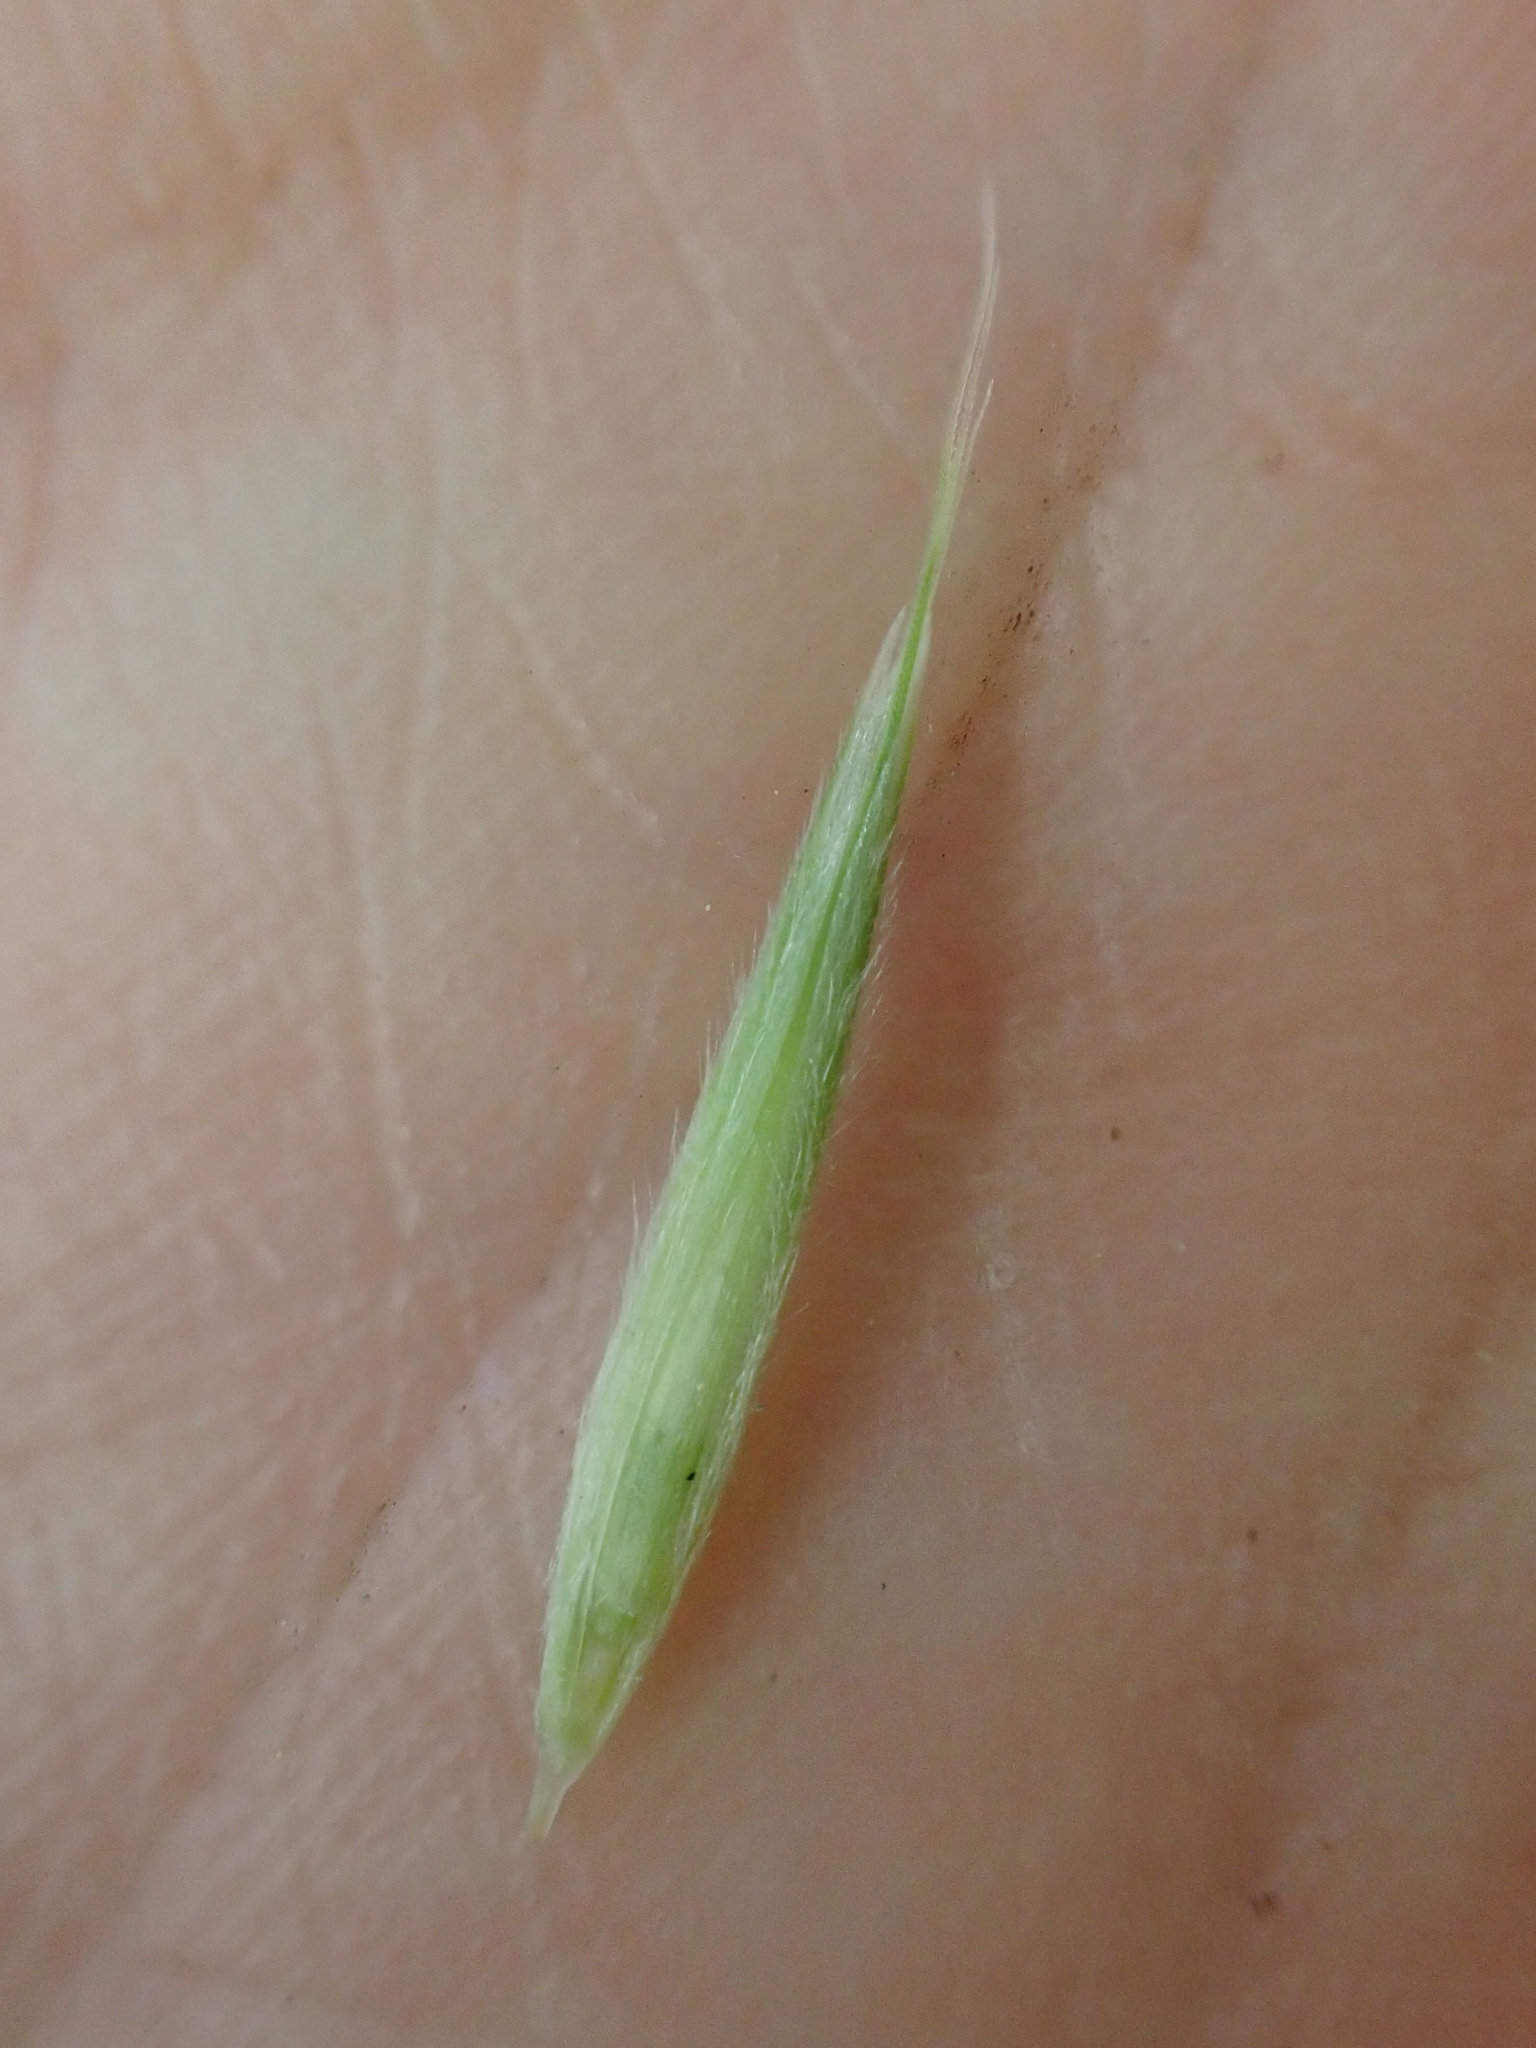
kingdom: Plantae
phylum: Tracheophyta
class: Liliopsida
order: Poales
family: Poaceae
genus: Bromus
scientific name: Bromus porteri
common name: Nodding brome
